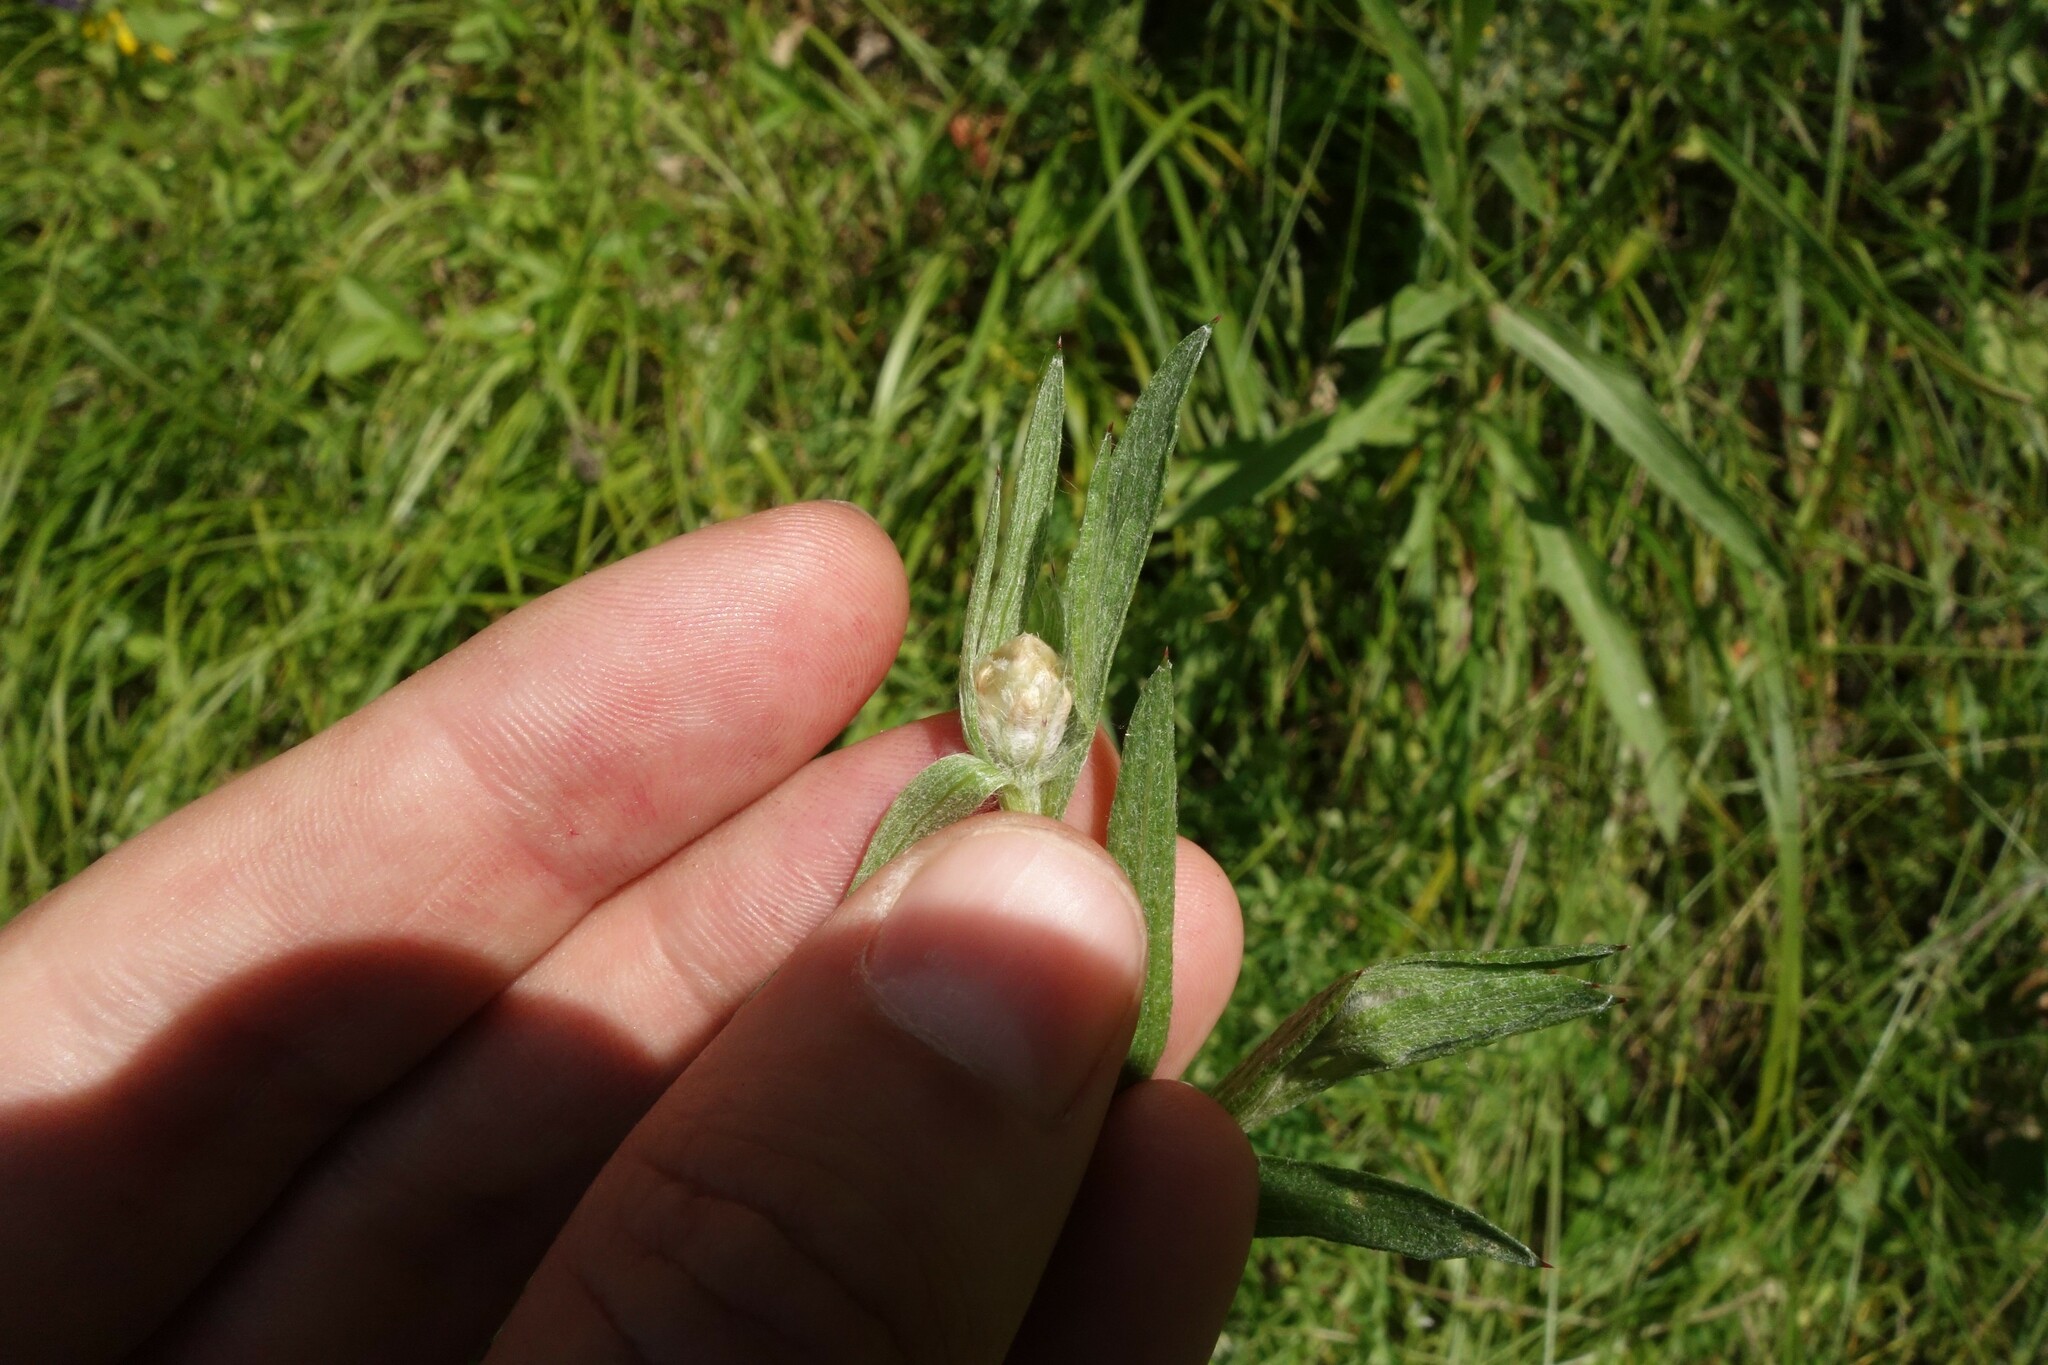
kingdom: Plantae
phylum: Tracheophyta
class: Magnoliopsida
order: Asterales
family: Asteraceae
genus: Centaurea
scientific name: Centaurea jacea
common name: Brown knapweed
